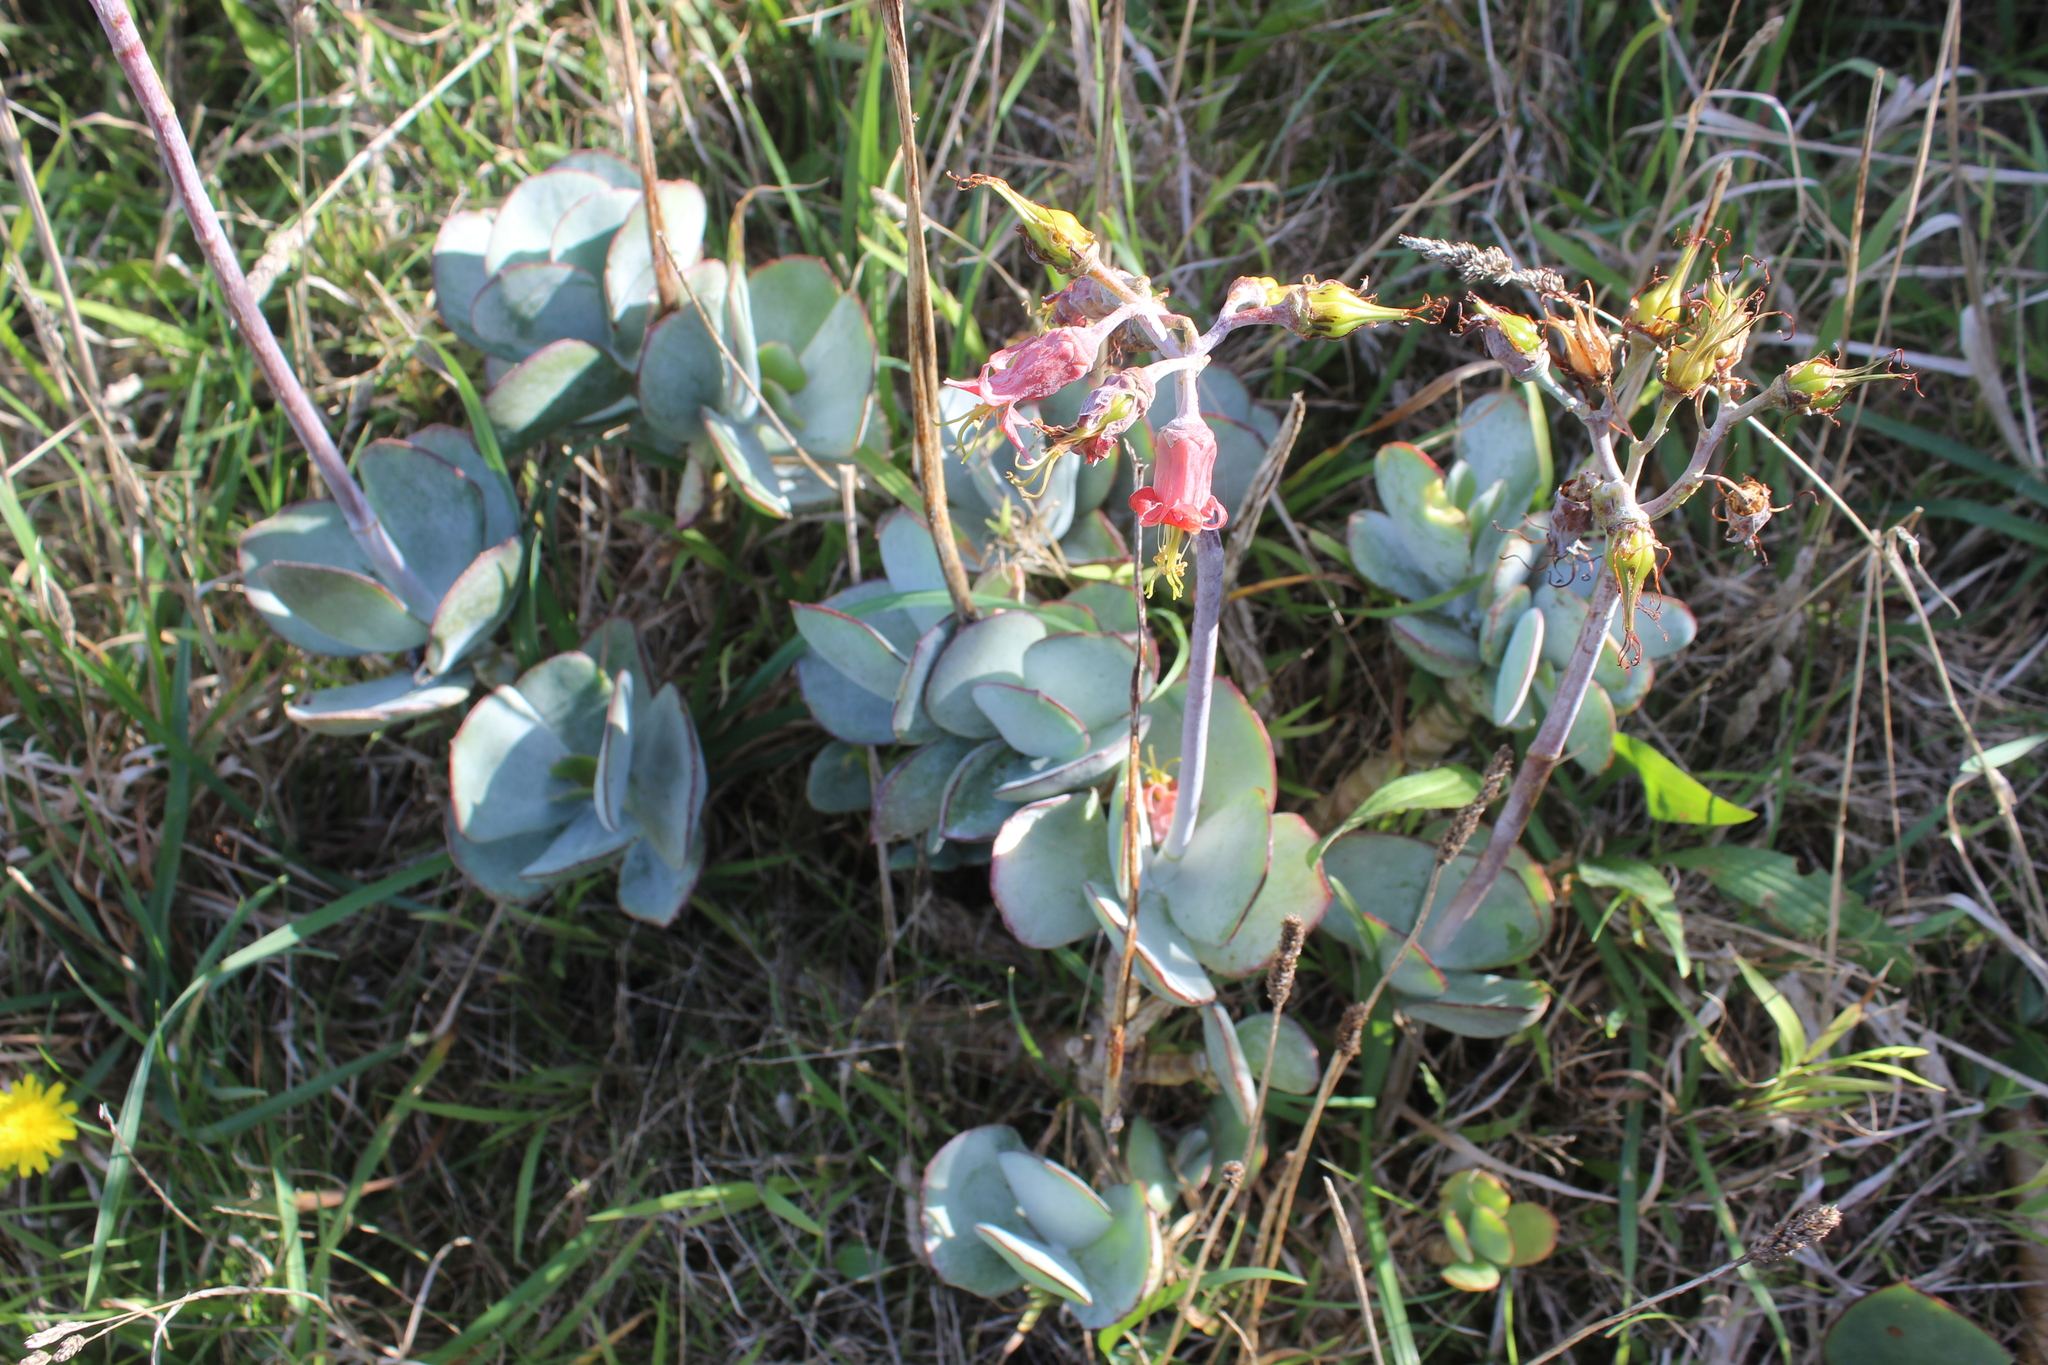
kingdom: Plantae
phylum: Tracheophyta
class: Magnoliopsida
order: Saxifragales
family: Crassulaceae
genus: Cotyledon
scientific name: Cotyledon orbiculata
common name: Pig's ear
